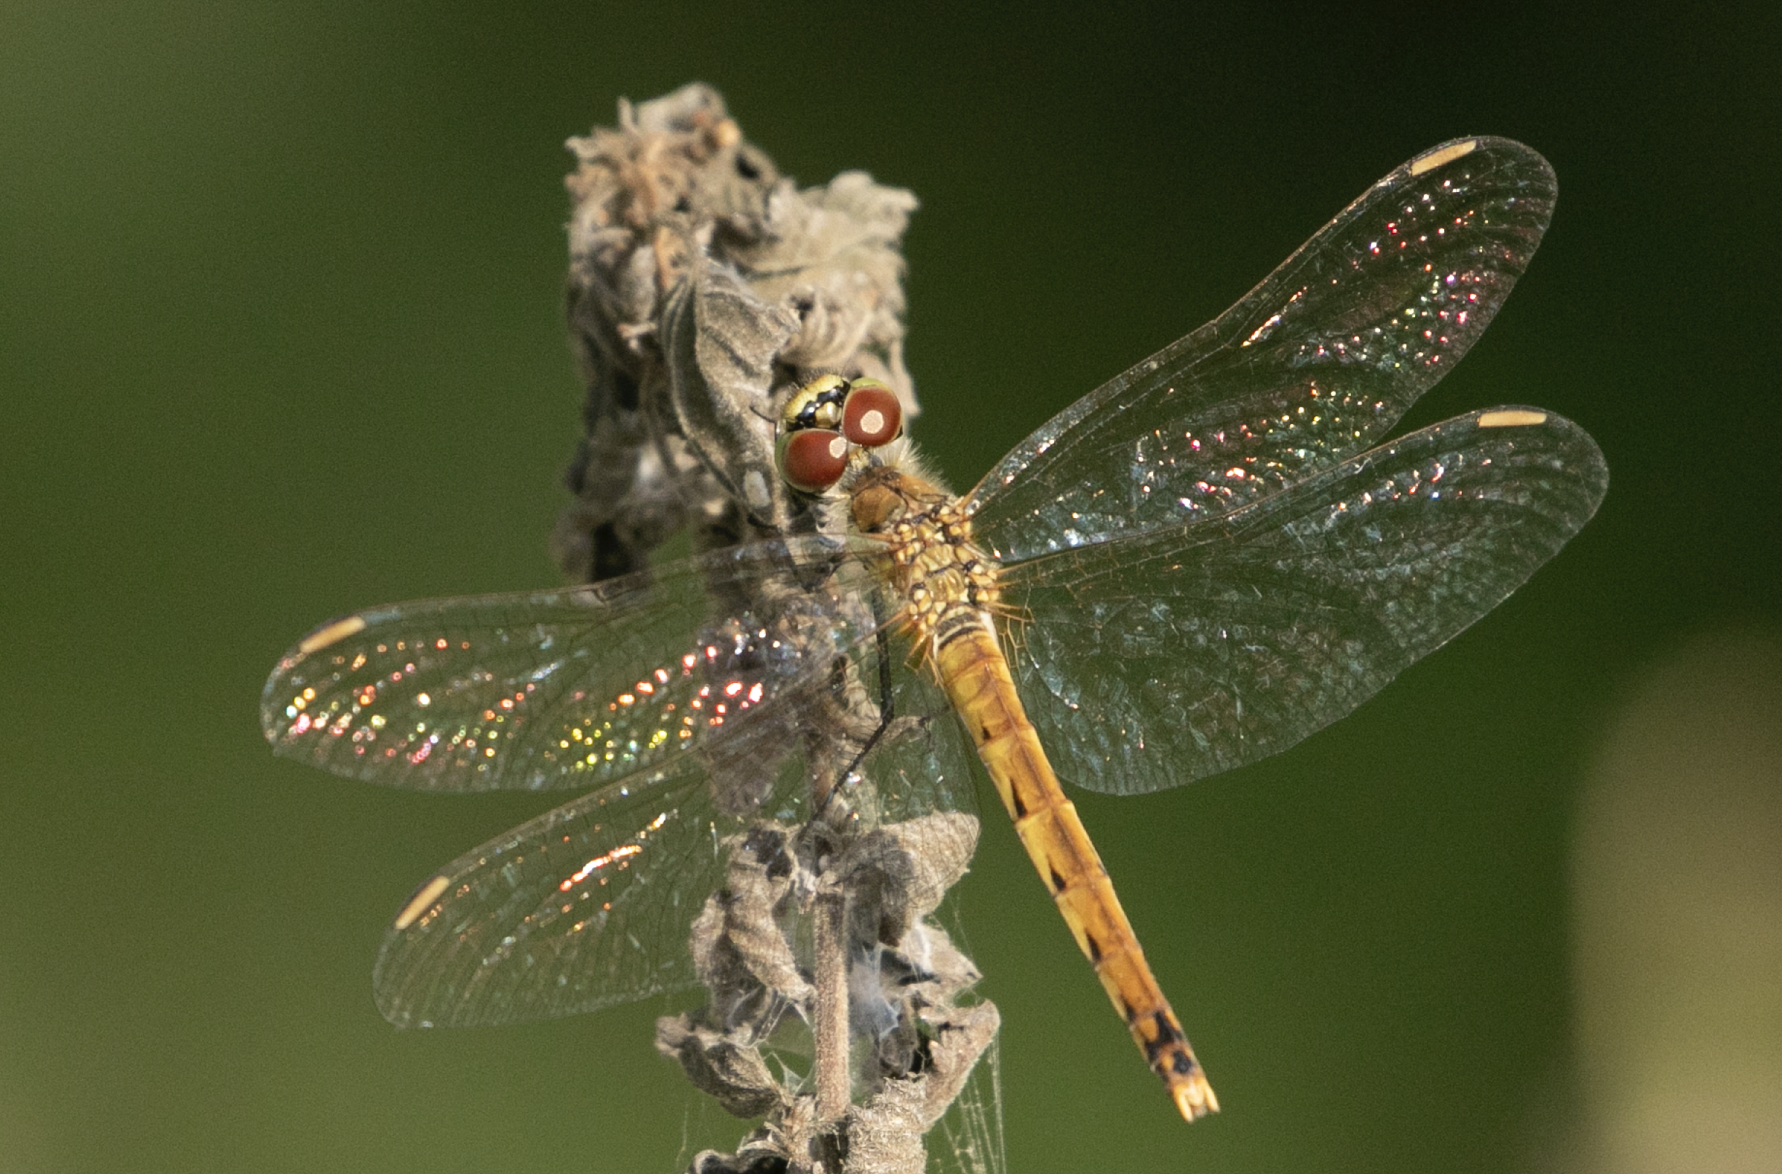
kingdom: Animalia
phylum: Arthropoda
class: Insecta
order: Odonata
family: Libellulidae
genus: Sympetrum
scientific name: Sympetrum depressiusculum
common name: Spotted darter
